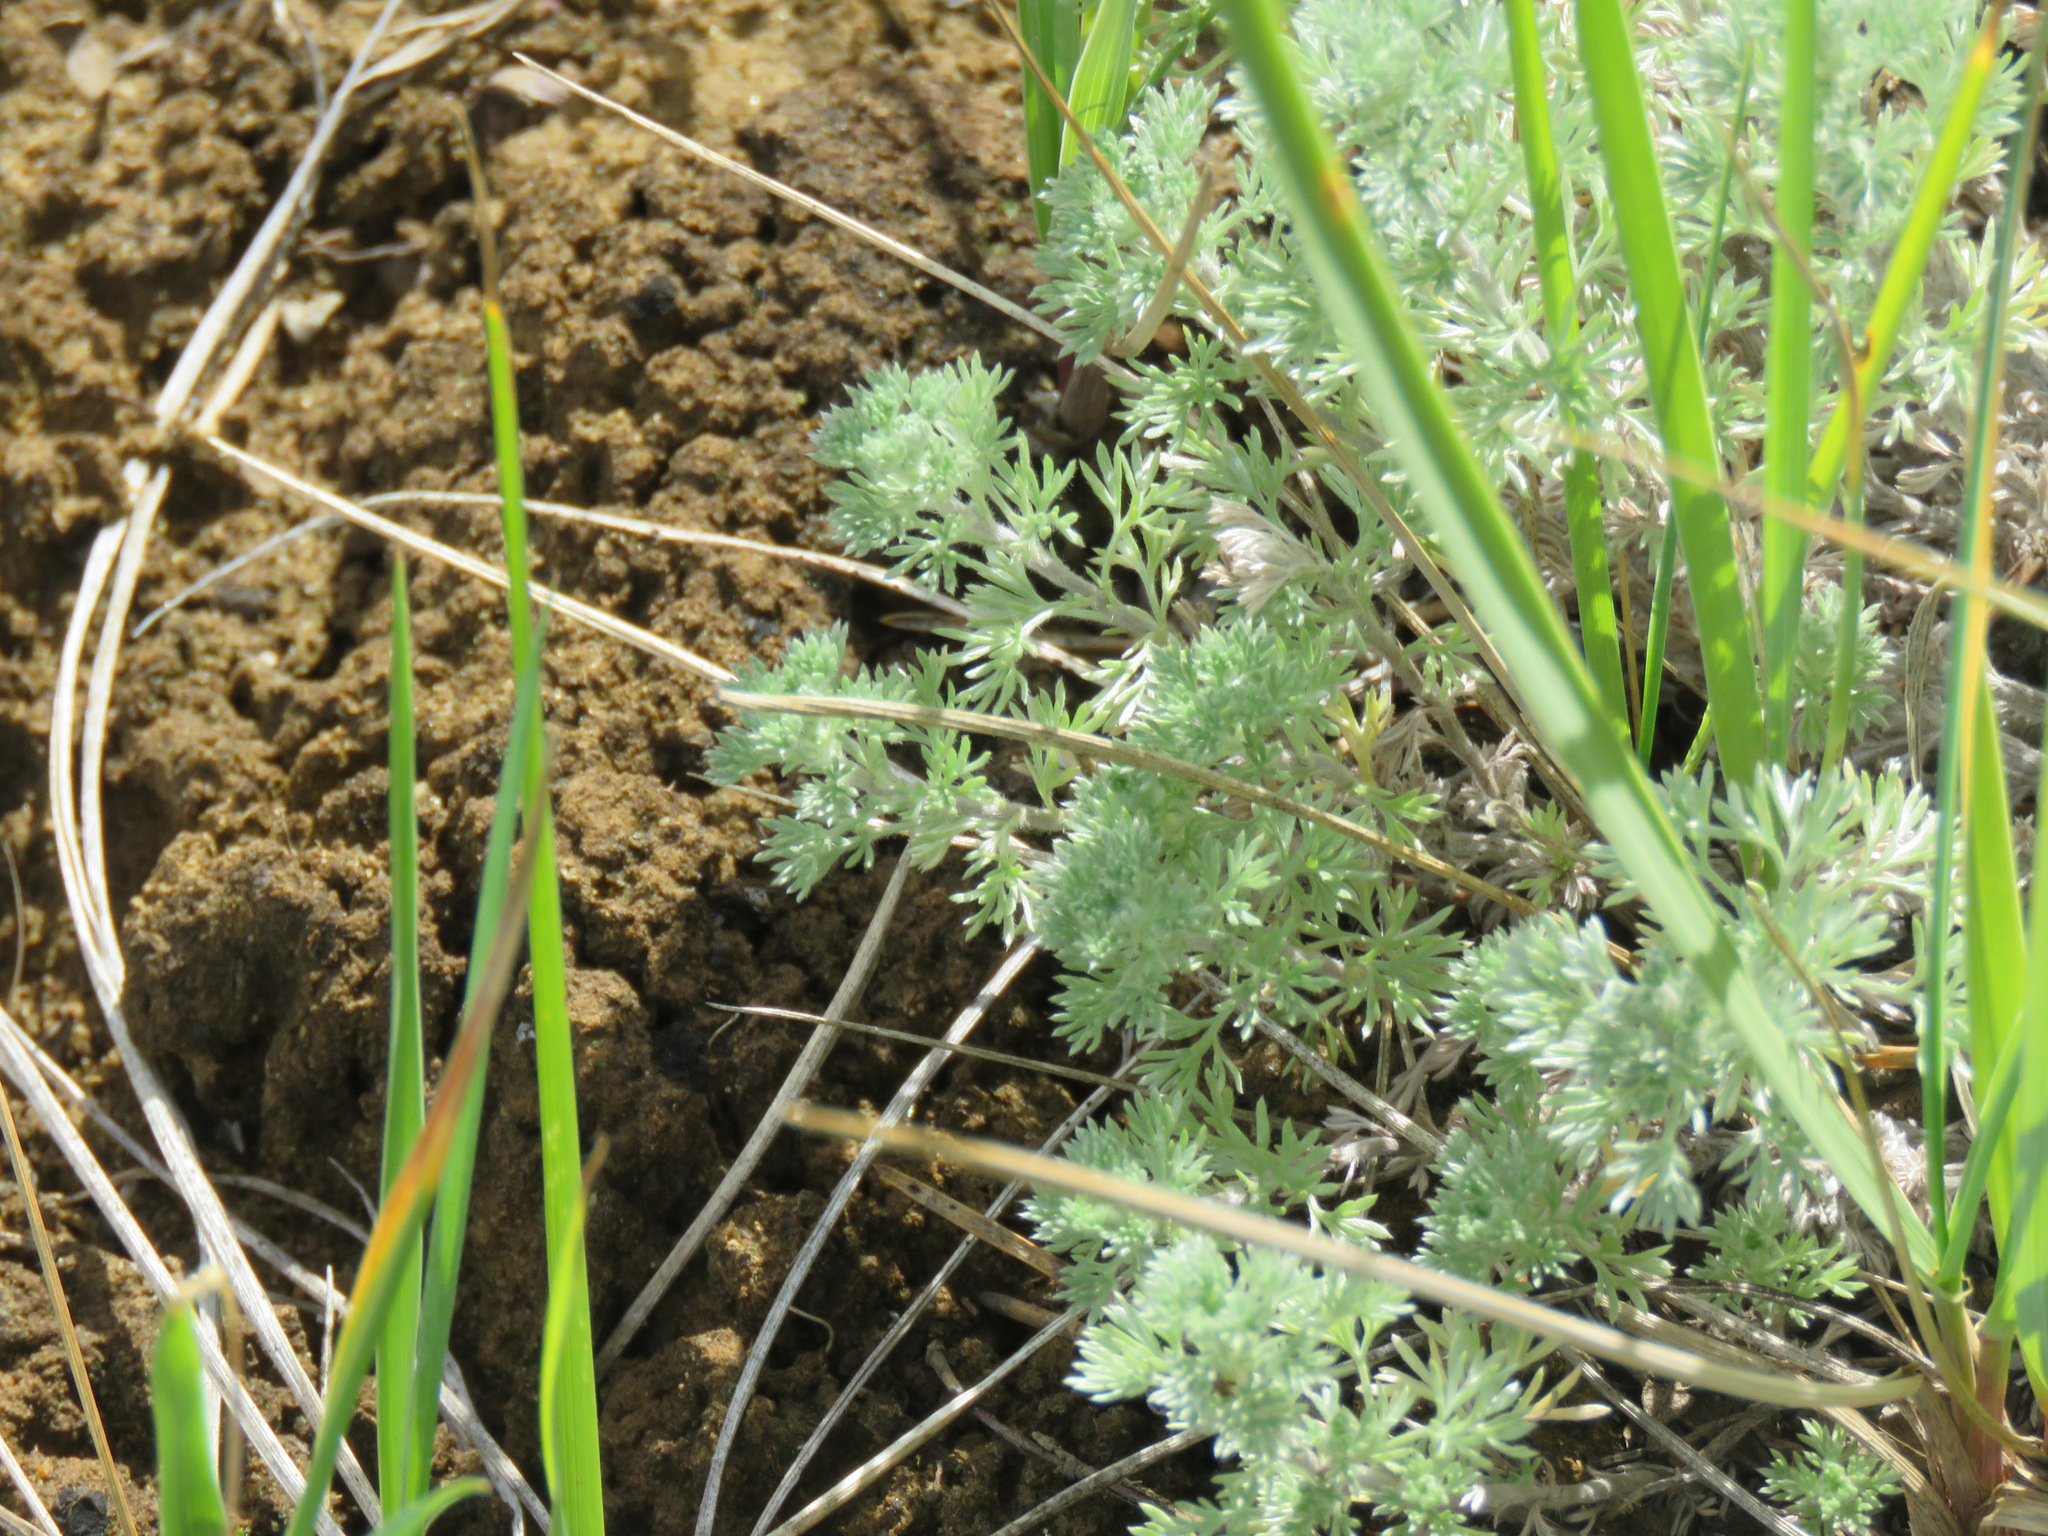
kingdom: Plantae
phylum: Tracheophyta
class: Magnoliopsida
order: Asterales
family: Asteraceae
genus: Artemisia
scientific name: Artemisia frigida
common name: Prairie sagewort
